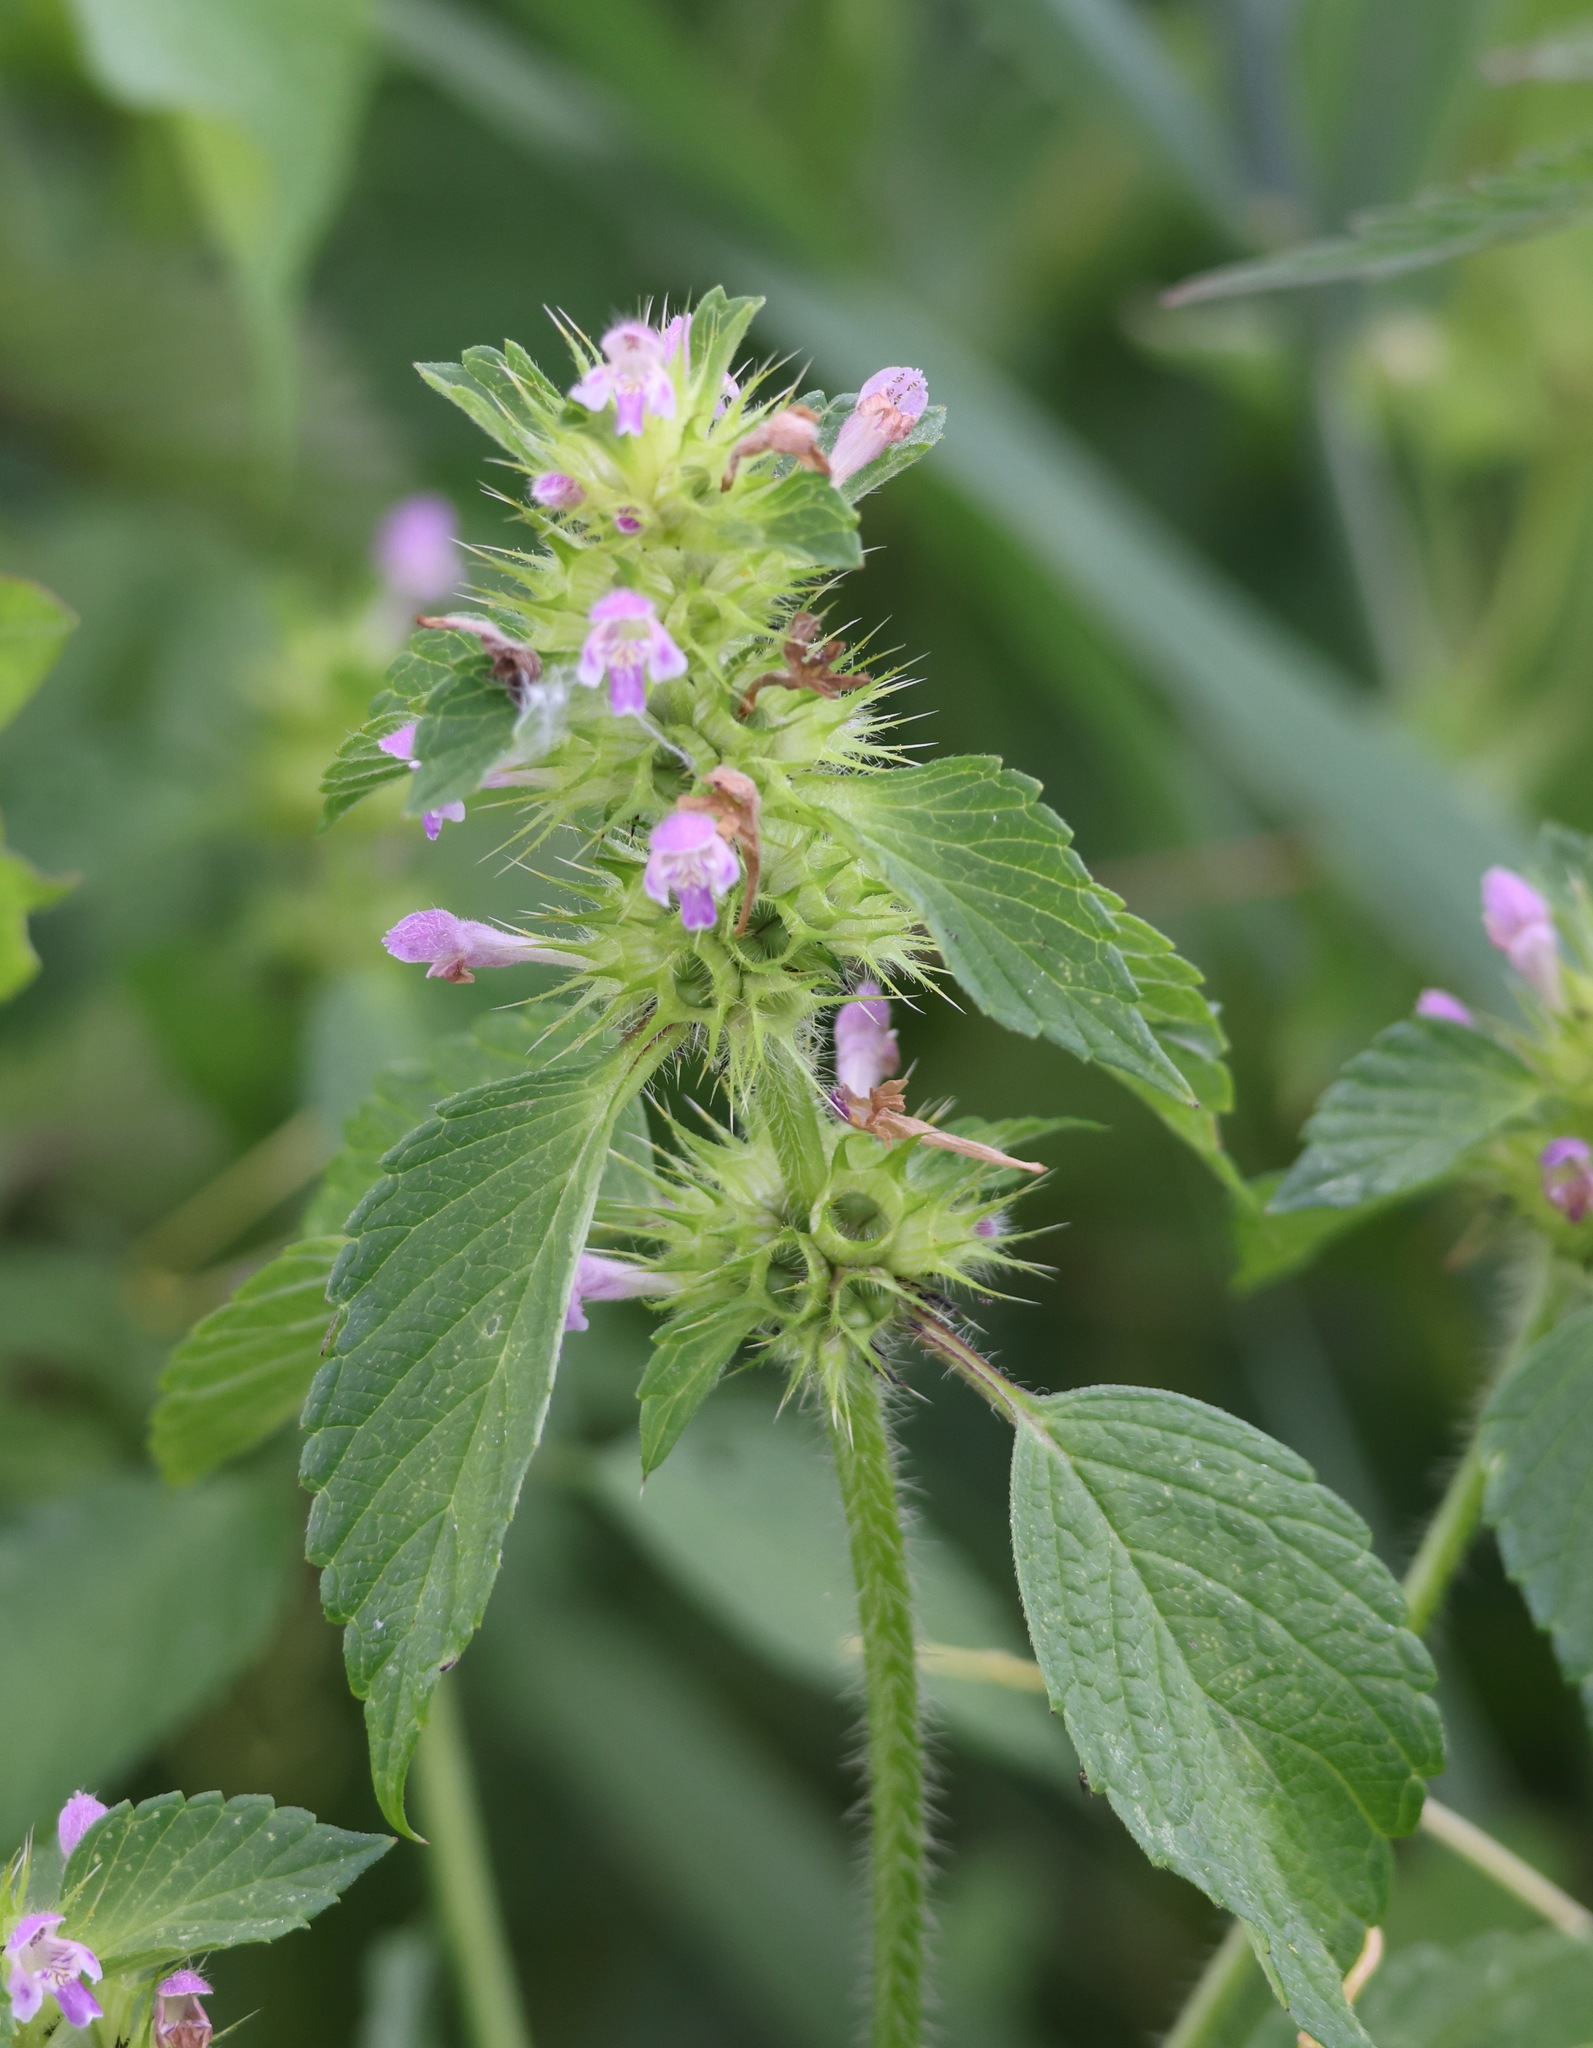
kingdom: Plantae
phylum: Tracheophyta
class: Magnoliopsida
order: Lamiales
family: Lamiaceae
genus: Galeopsis
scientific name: Galeopsis bifida
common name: Bifid hemp-nettle
